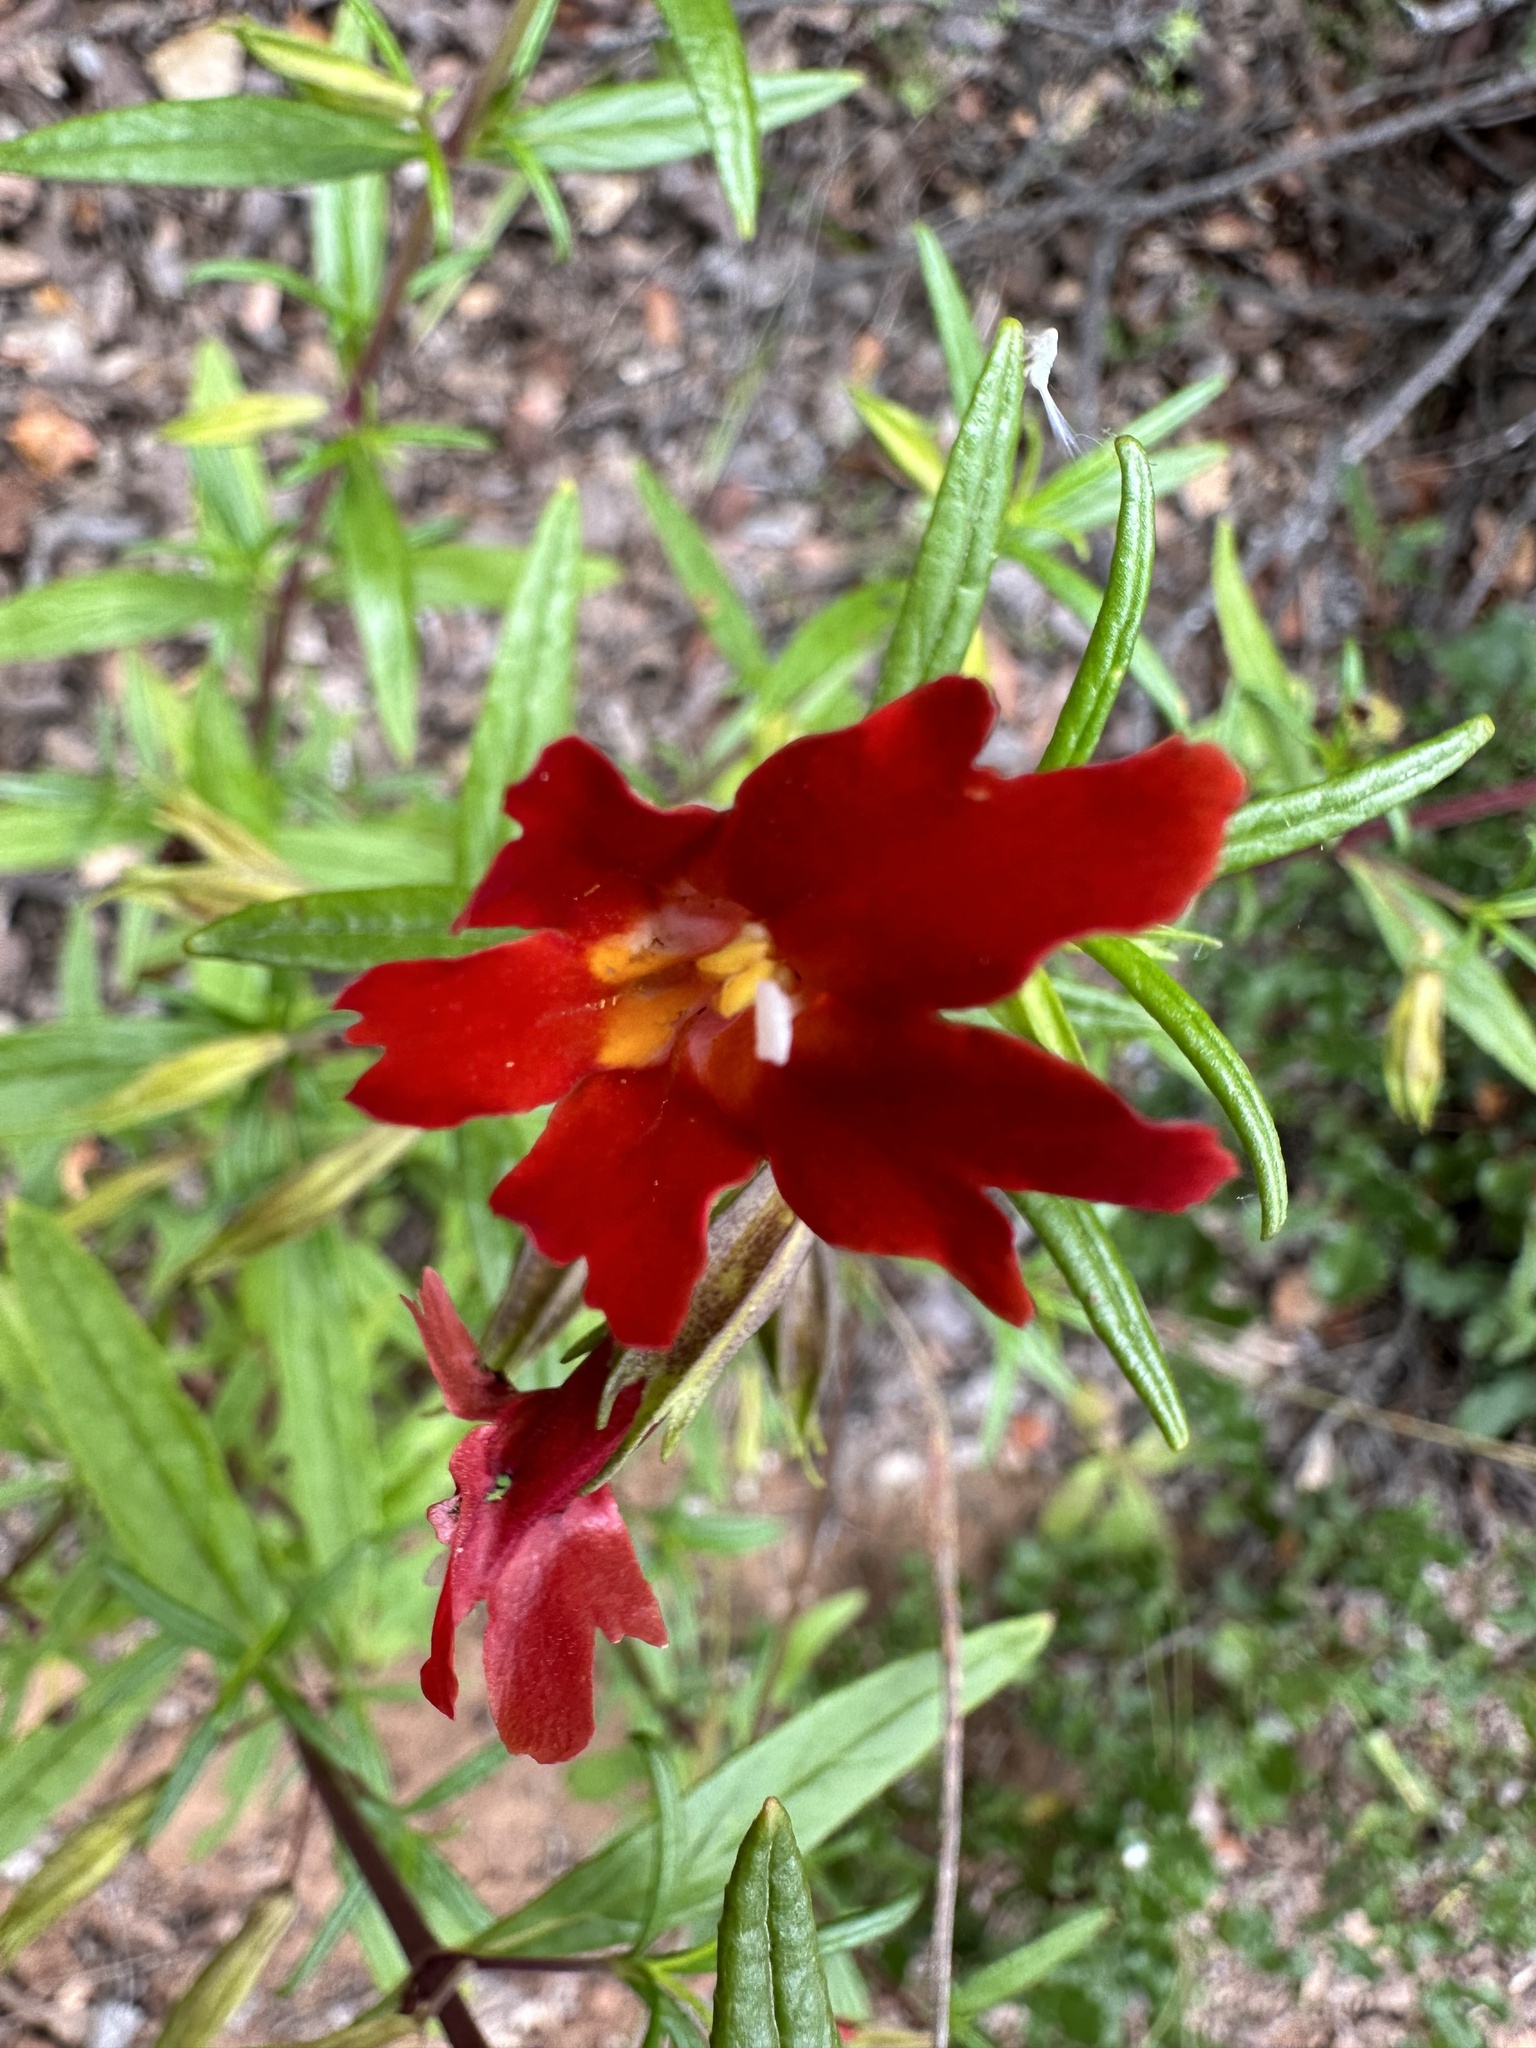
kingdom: Plantae
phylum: Tracheophyta
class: Magnoliopsida
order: Lamiales
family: Phrymaceae
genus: Diplacus
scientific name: Diplacus puniceus
